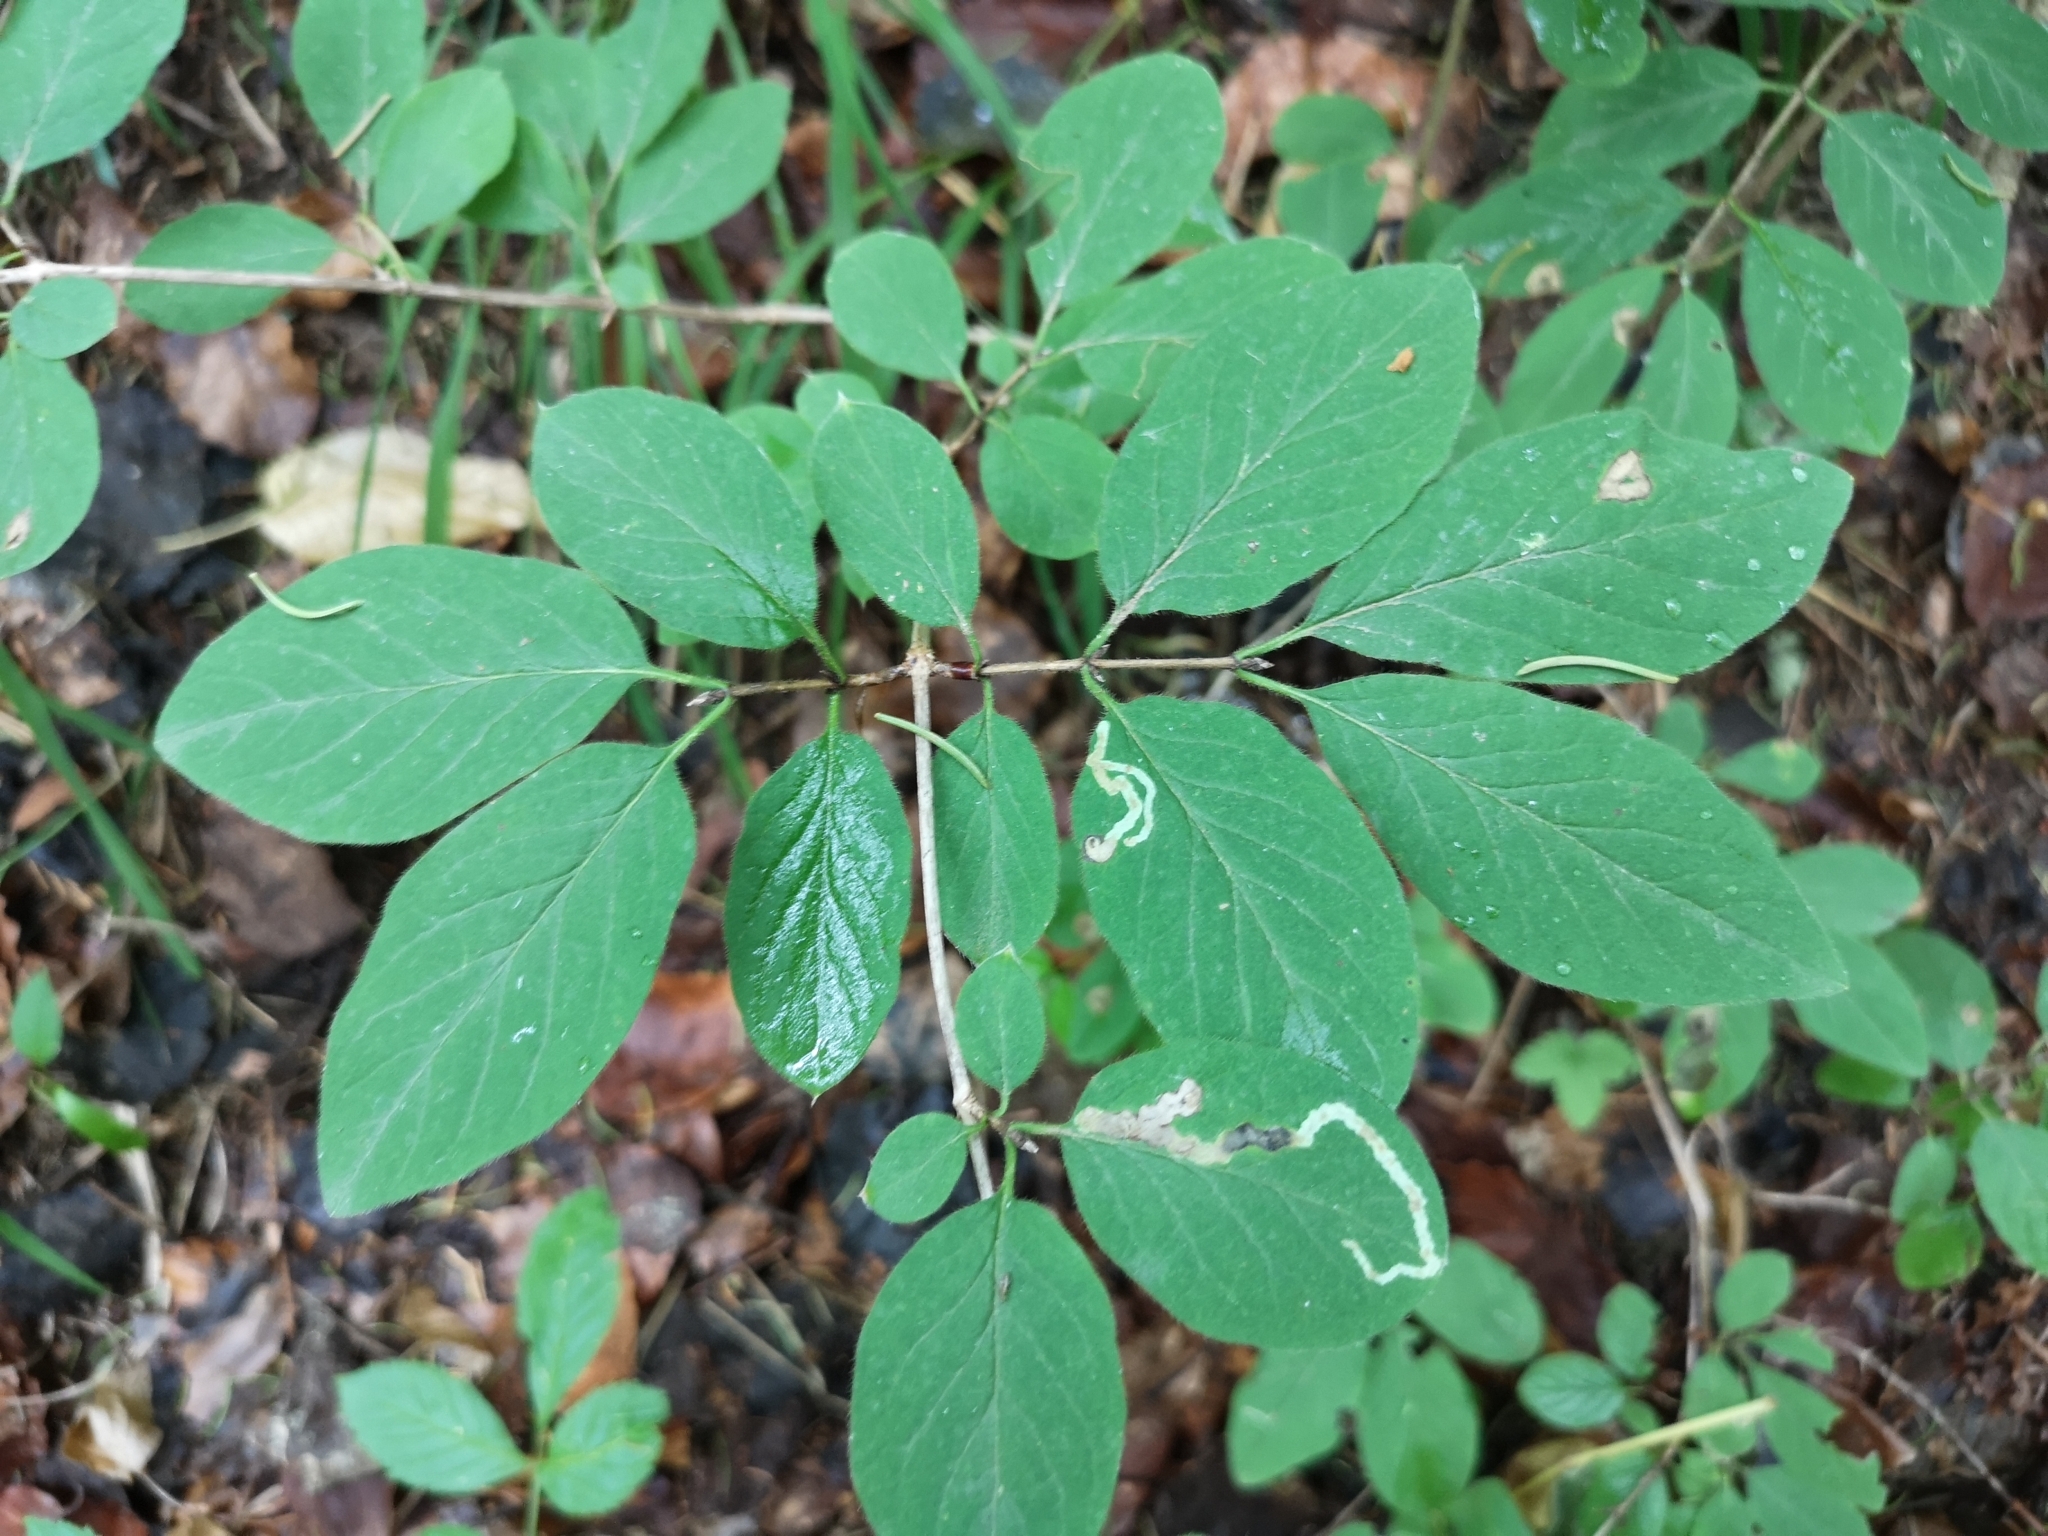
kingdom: Plantae
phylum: Tracheophyta
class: Magnoliopsida
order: Dipsacales
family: Caprifoliaceae
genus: Lonicera
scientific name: Lonicera xylosteum
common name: Fly honeysuckle
